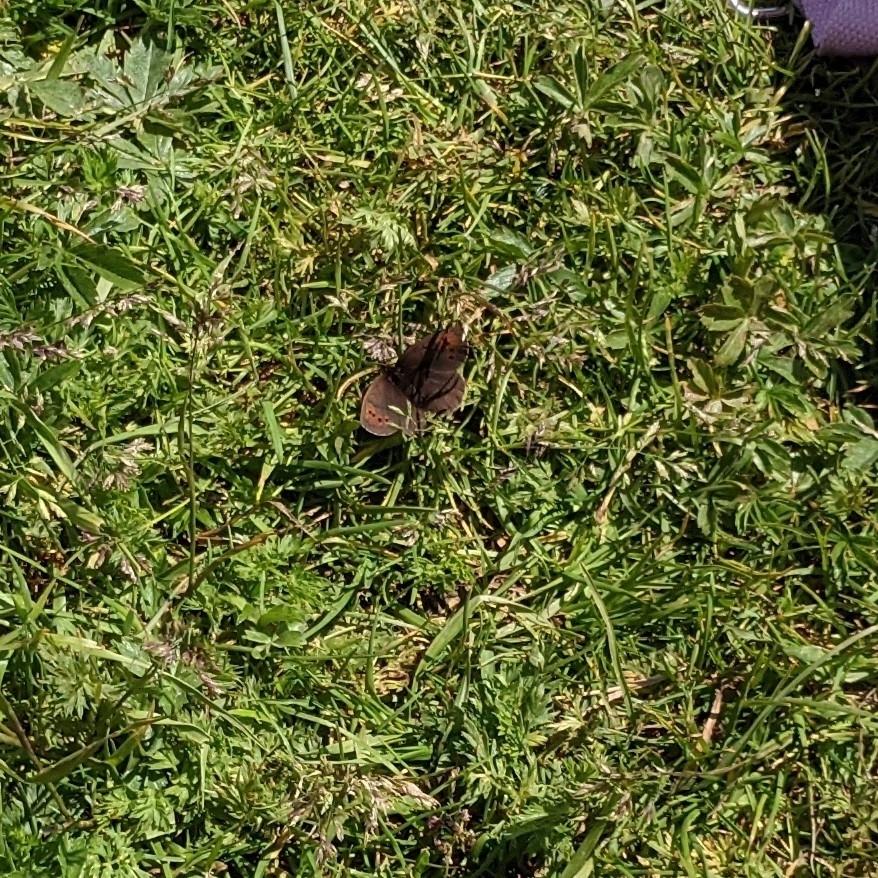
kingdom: Animalia
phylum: Arthropoda
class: Insecta
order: Lepidoptera
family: Nymphalidae
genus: Erebia
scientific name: Erebia pandrose
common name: Dewy ringlet
